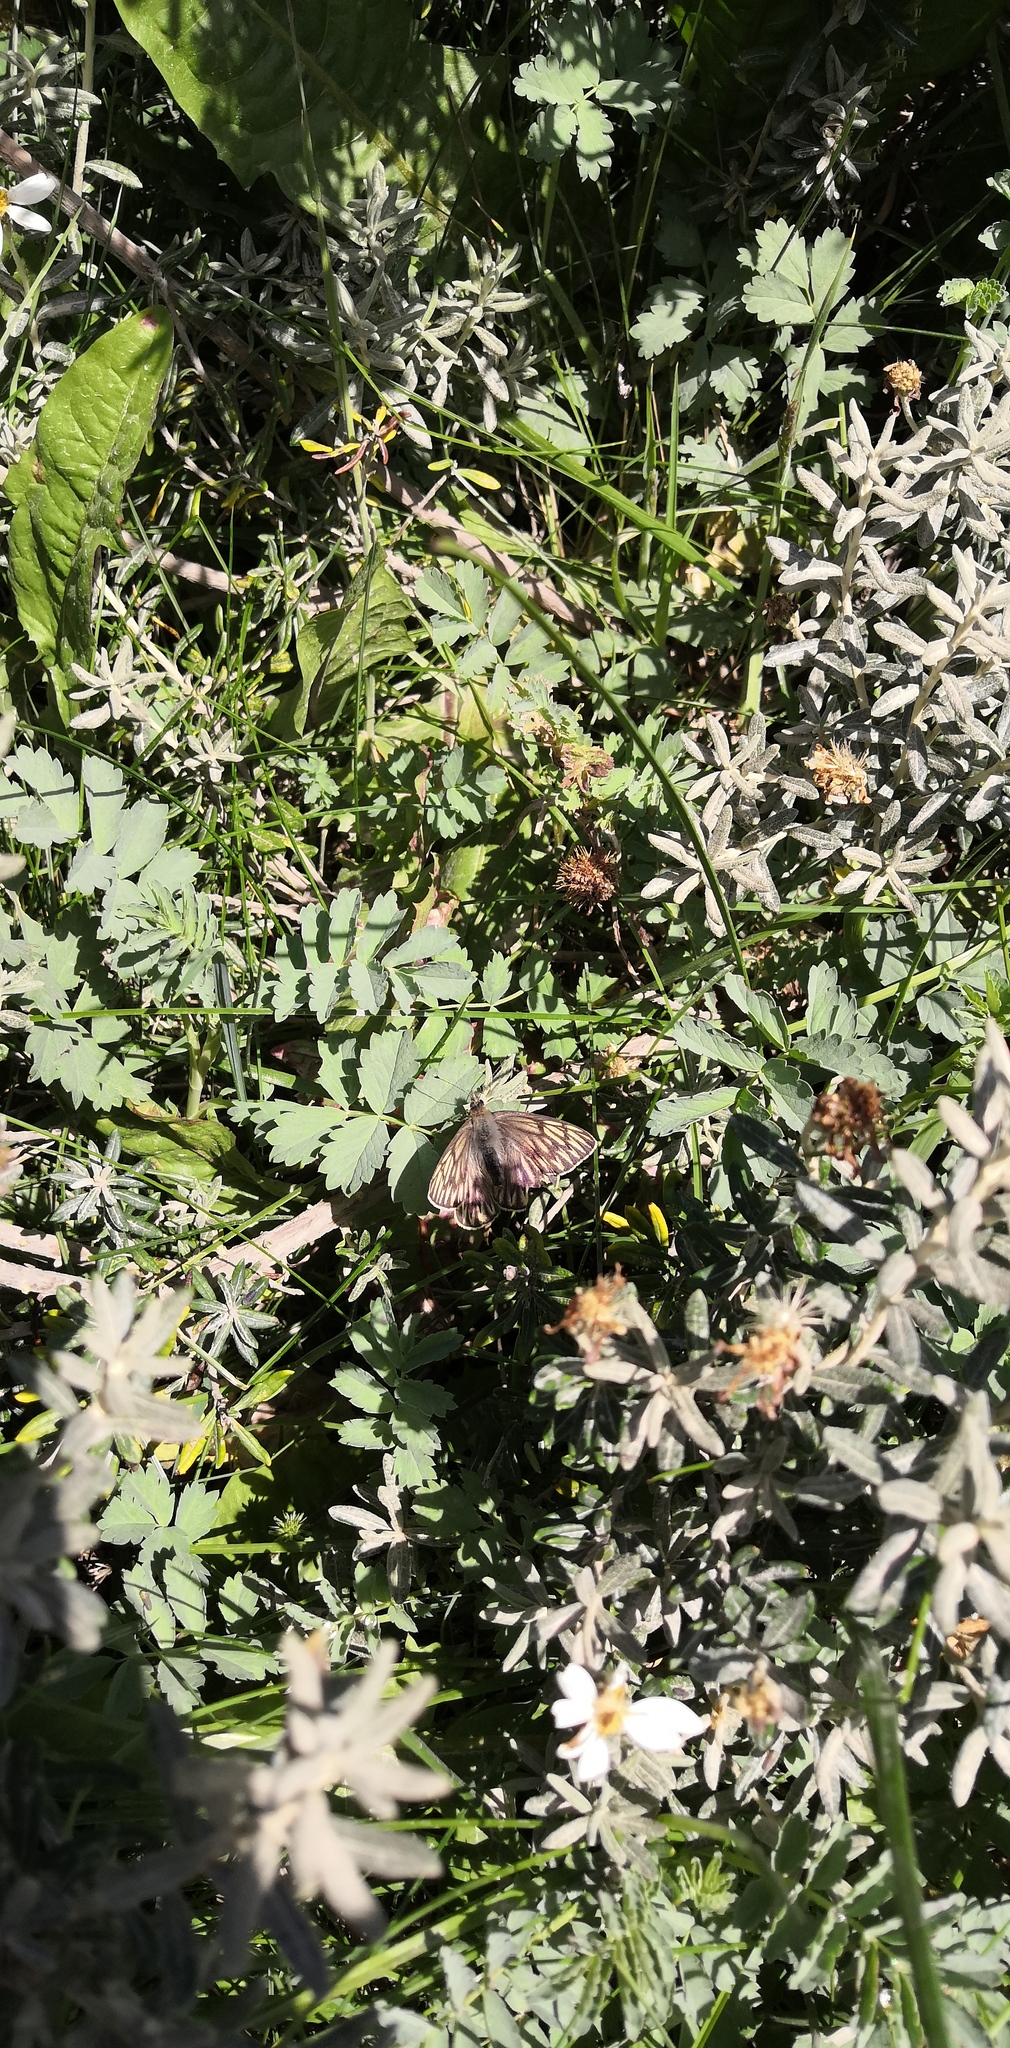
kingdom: Animalia
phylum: Arthropoda
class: Insecta
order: Lepidoptera
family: Pieridae
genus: Tatochila
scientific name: Tatochila theodice
